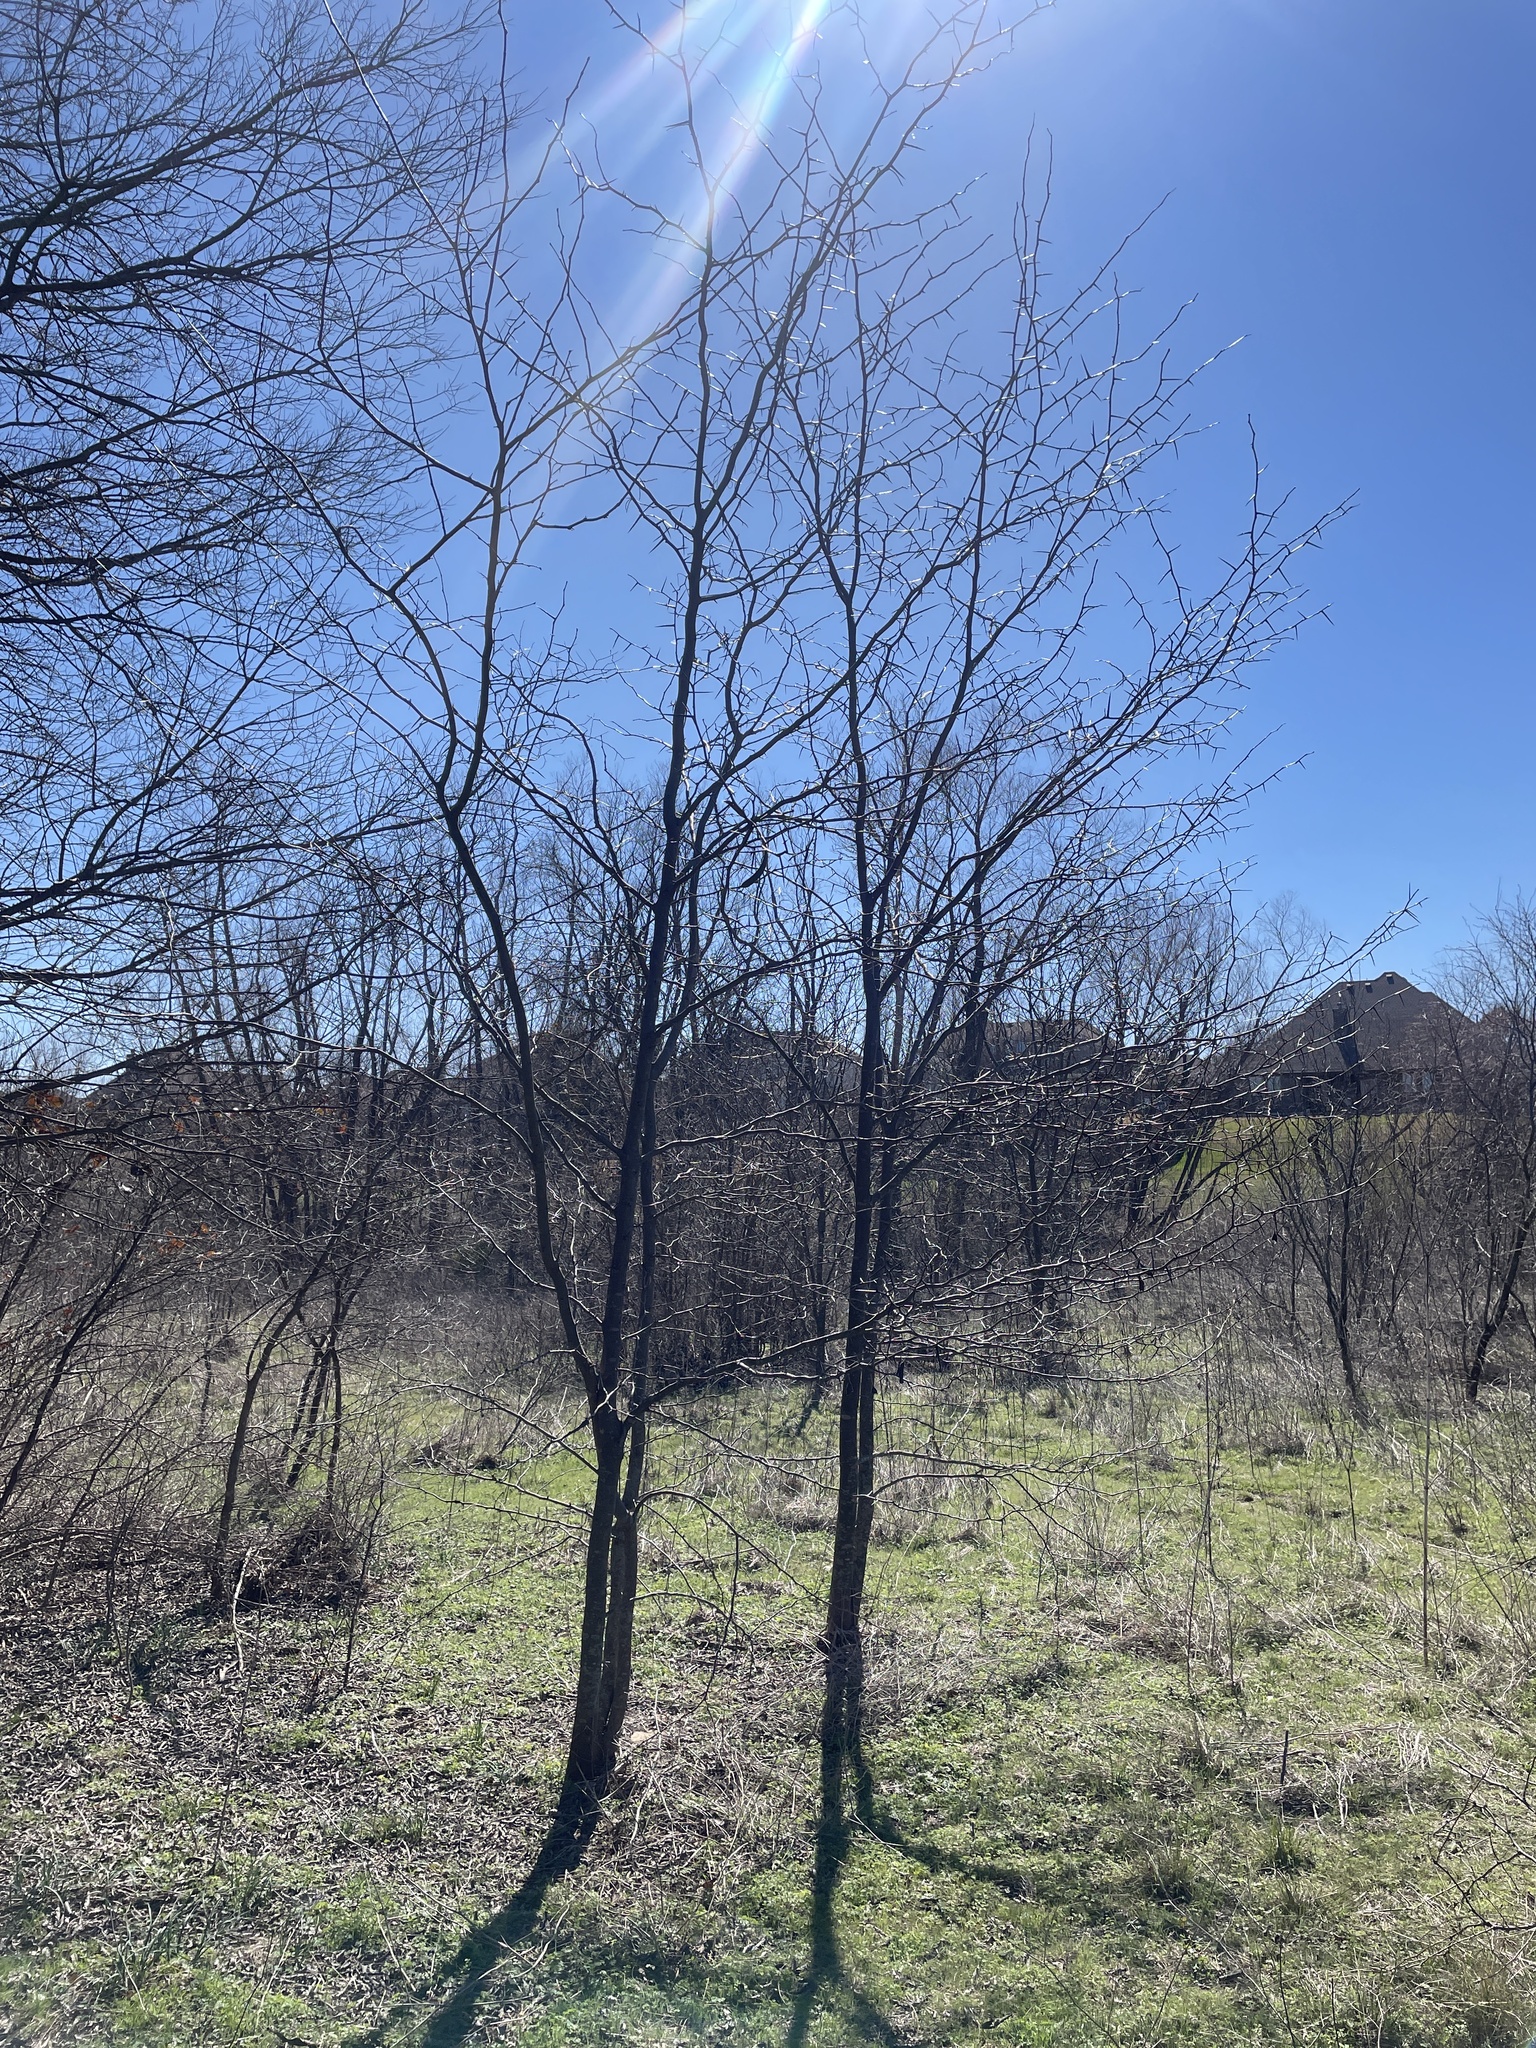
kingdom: Plantae
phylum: Tracheophyta
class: Magnoliopsida
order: Fabales
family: Fabaceae
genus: Gleditsia
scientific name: Gleditsia triacanthos
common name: Common honeylocust
